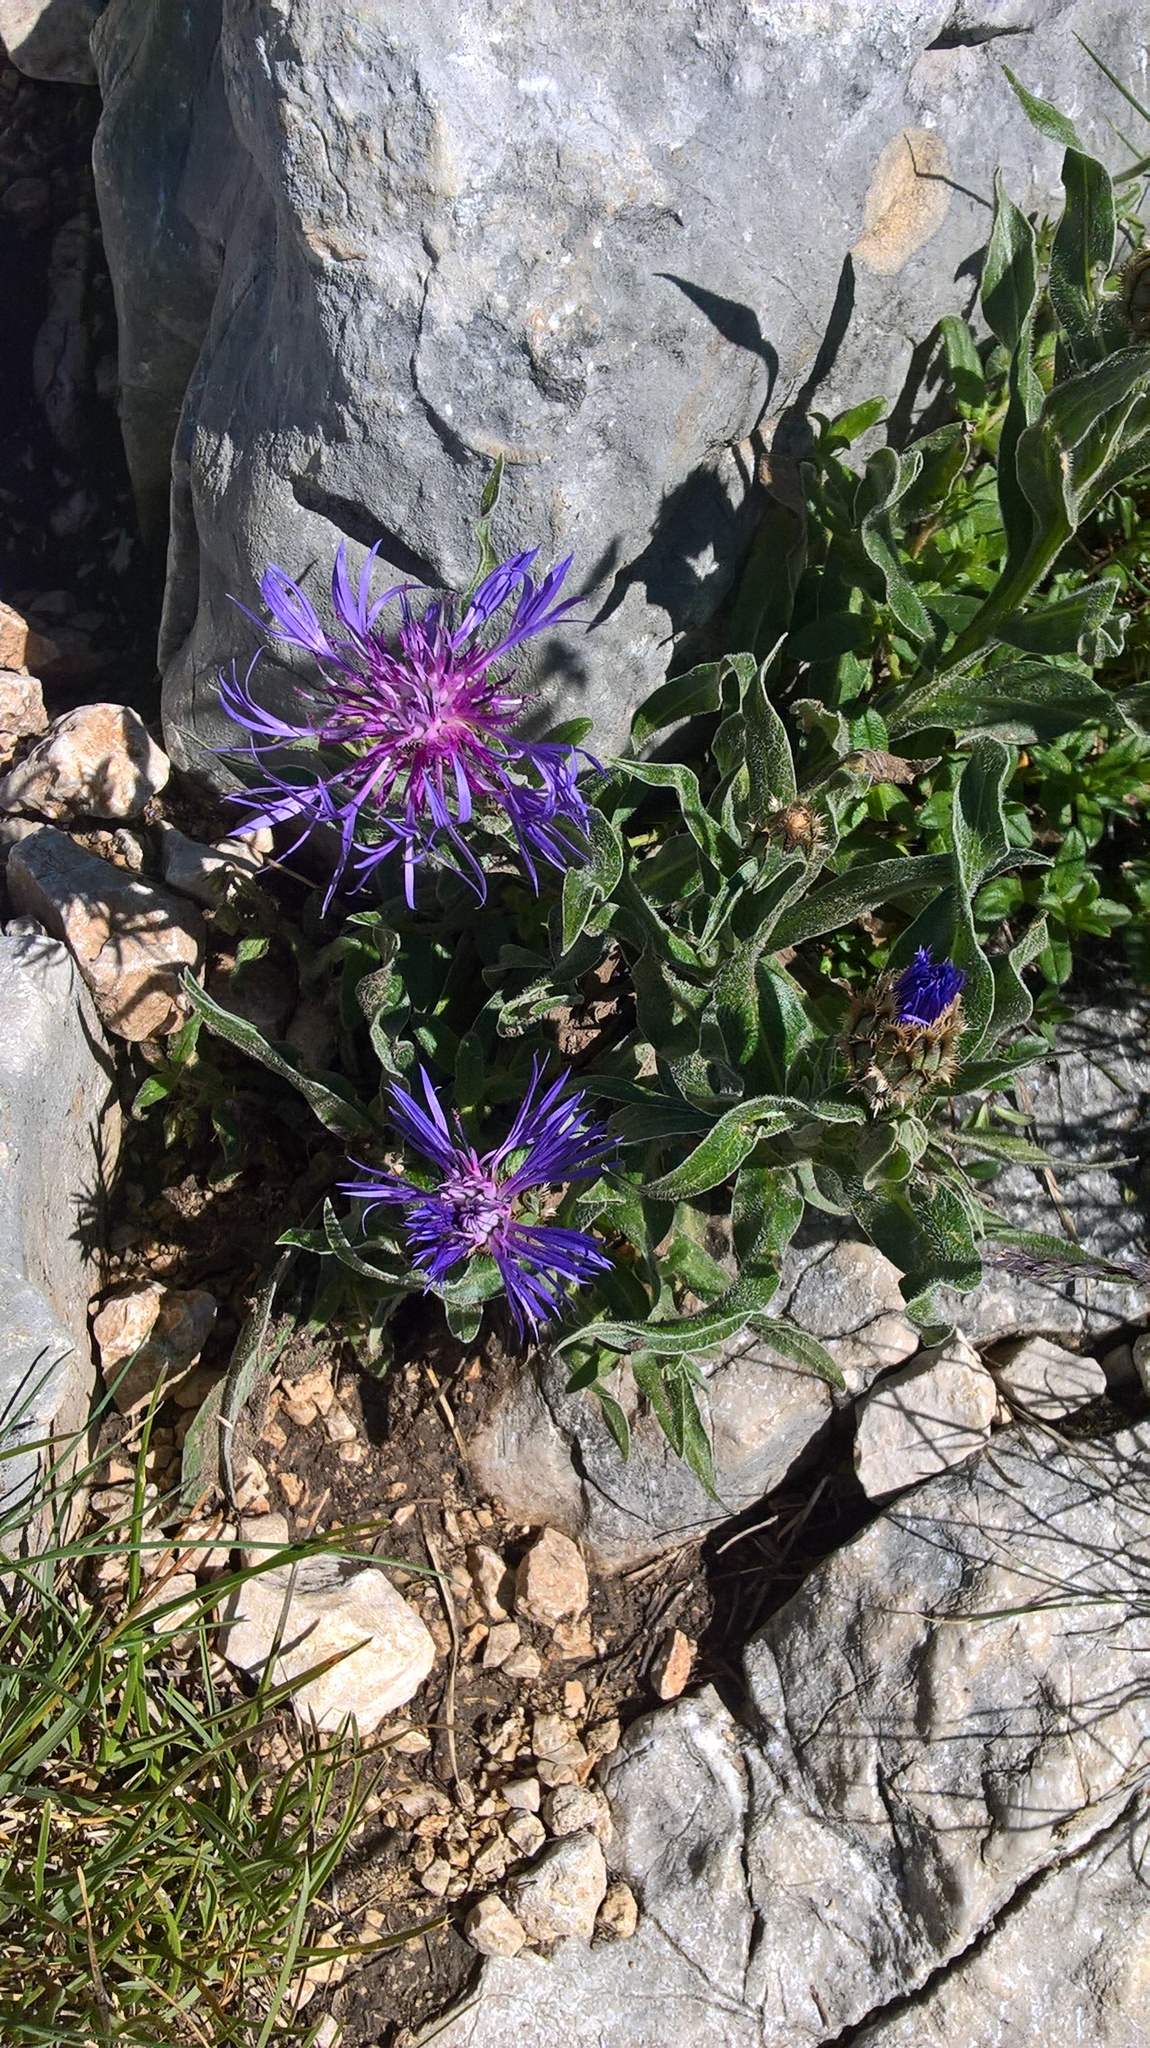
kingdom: Plantae
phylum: Tracheophyta
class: Magnoliopsida
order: Asterales
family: Asteraceae
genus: Centaurea
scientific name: Centaurea montana
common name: Perennial cornflower
